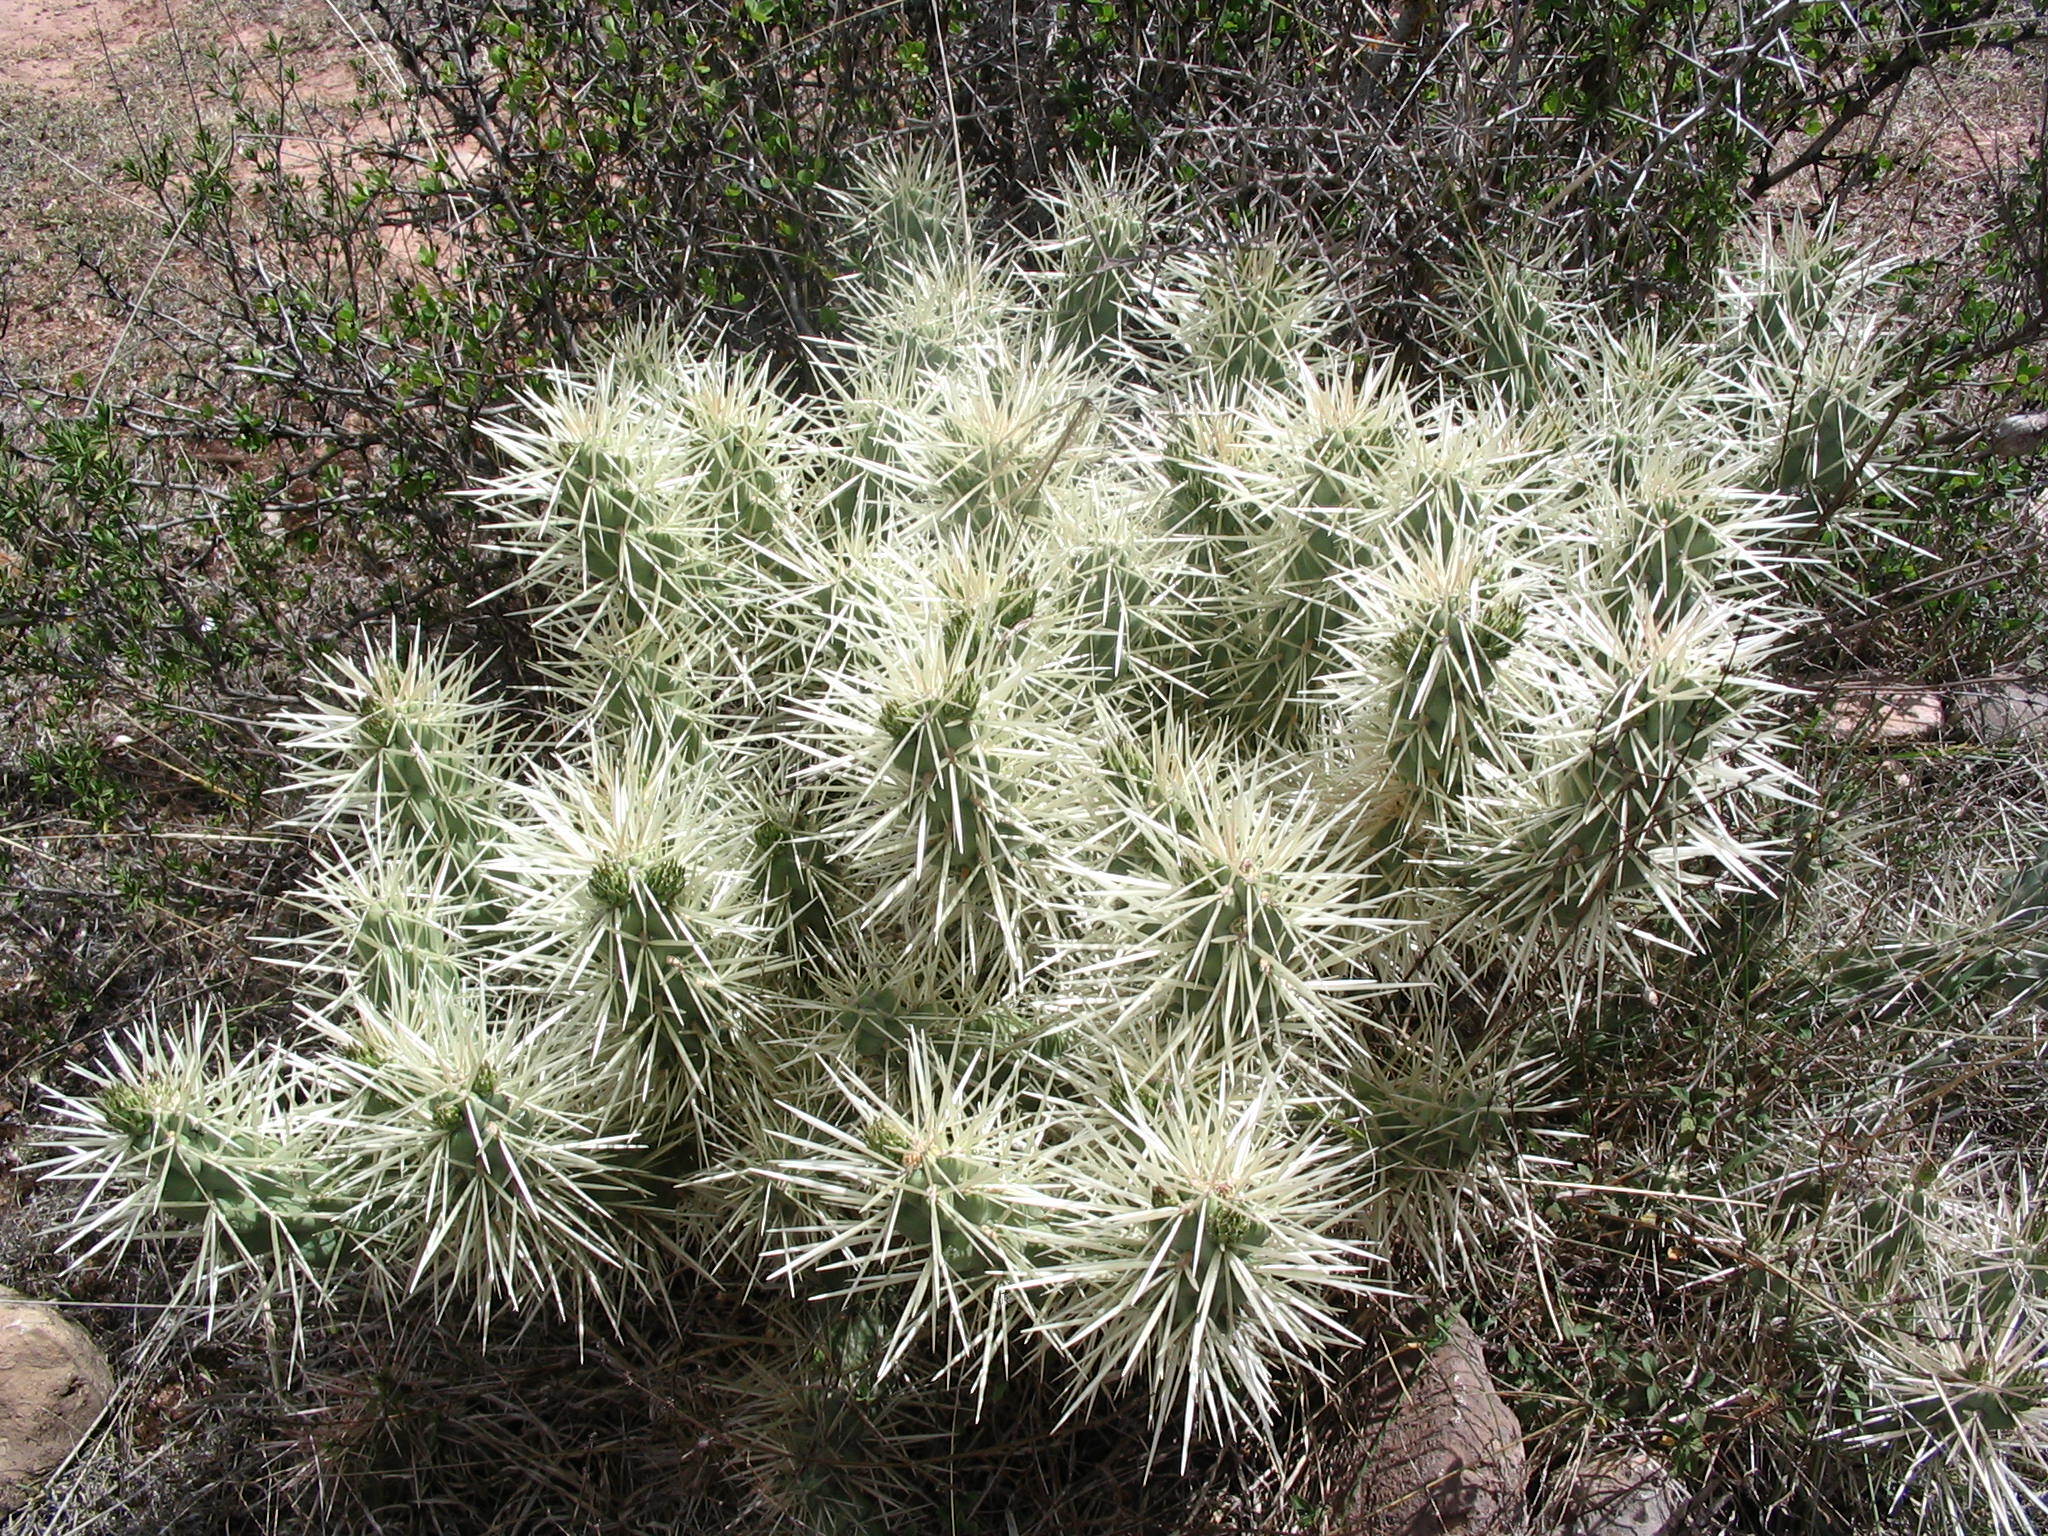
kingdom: Plantae
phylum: Tracheophyta
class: Magnoliopsida
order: Caryophyllales
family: Cactaceae
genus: Cylindropuntia
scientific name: Cylindropuntia tunicata
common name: Sheathed cholla
